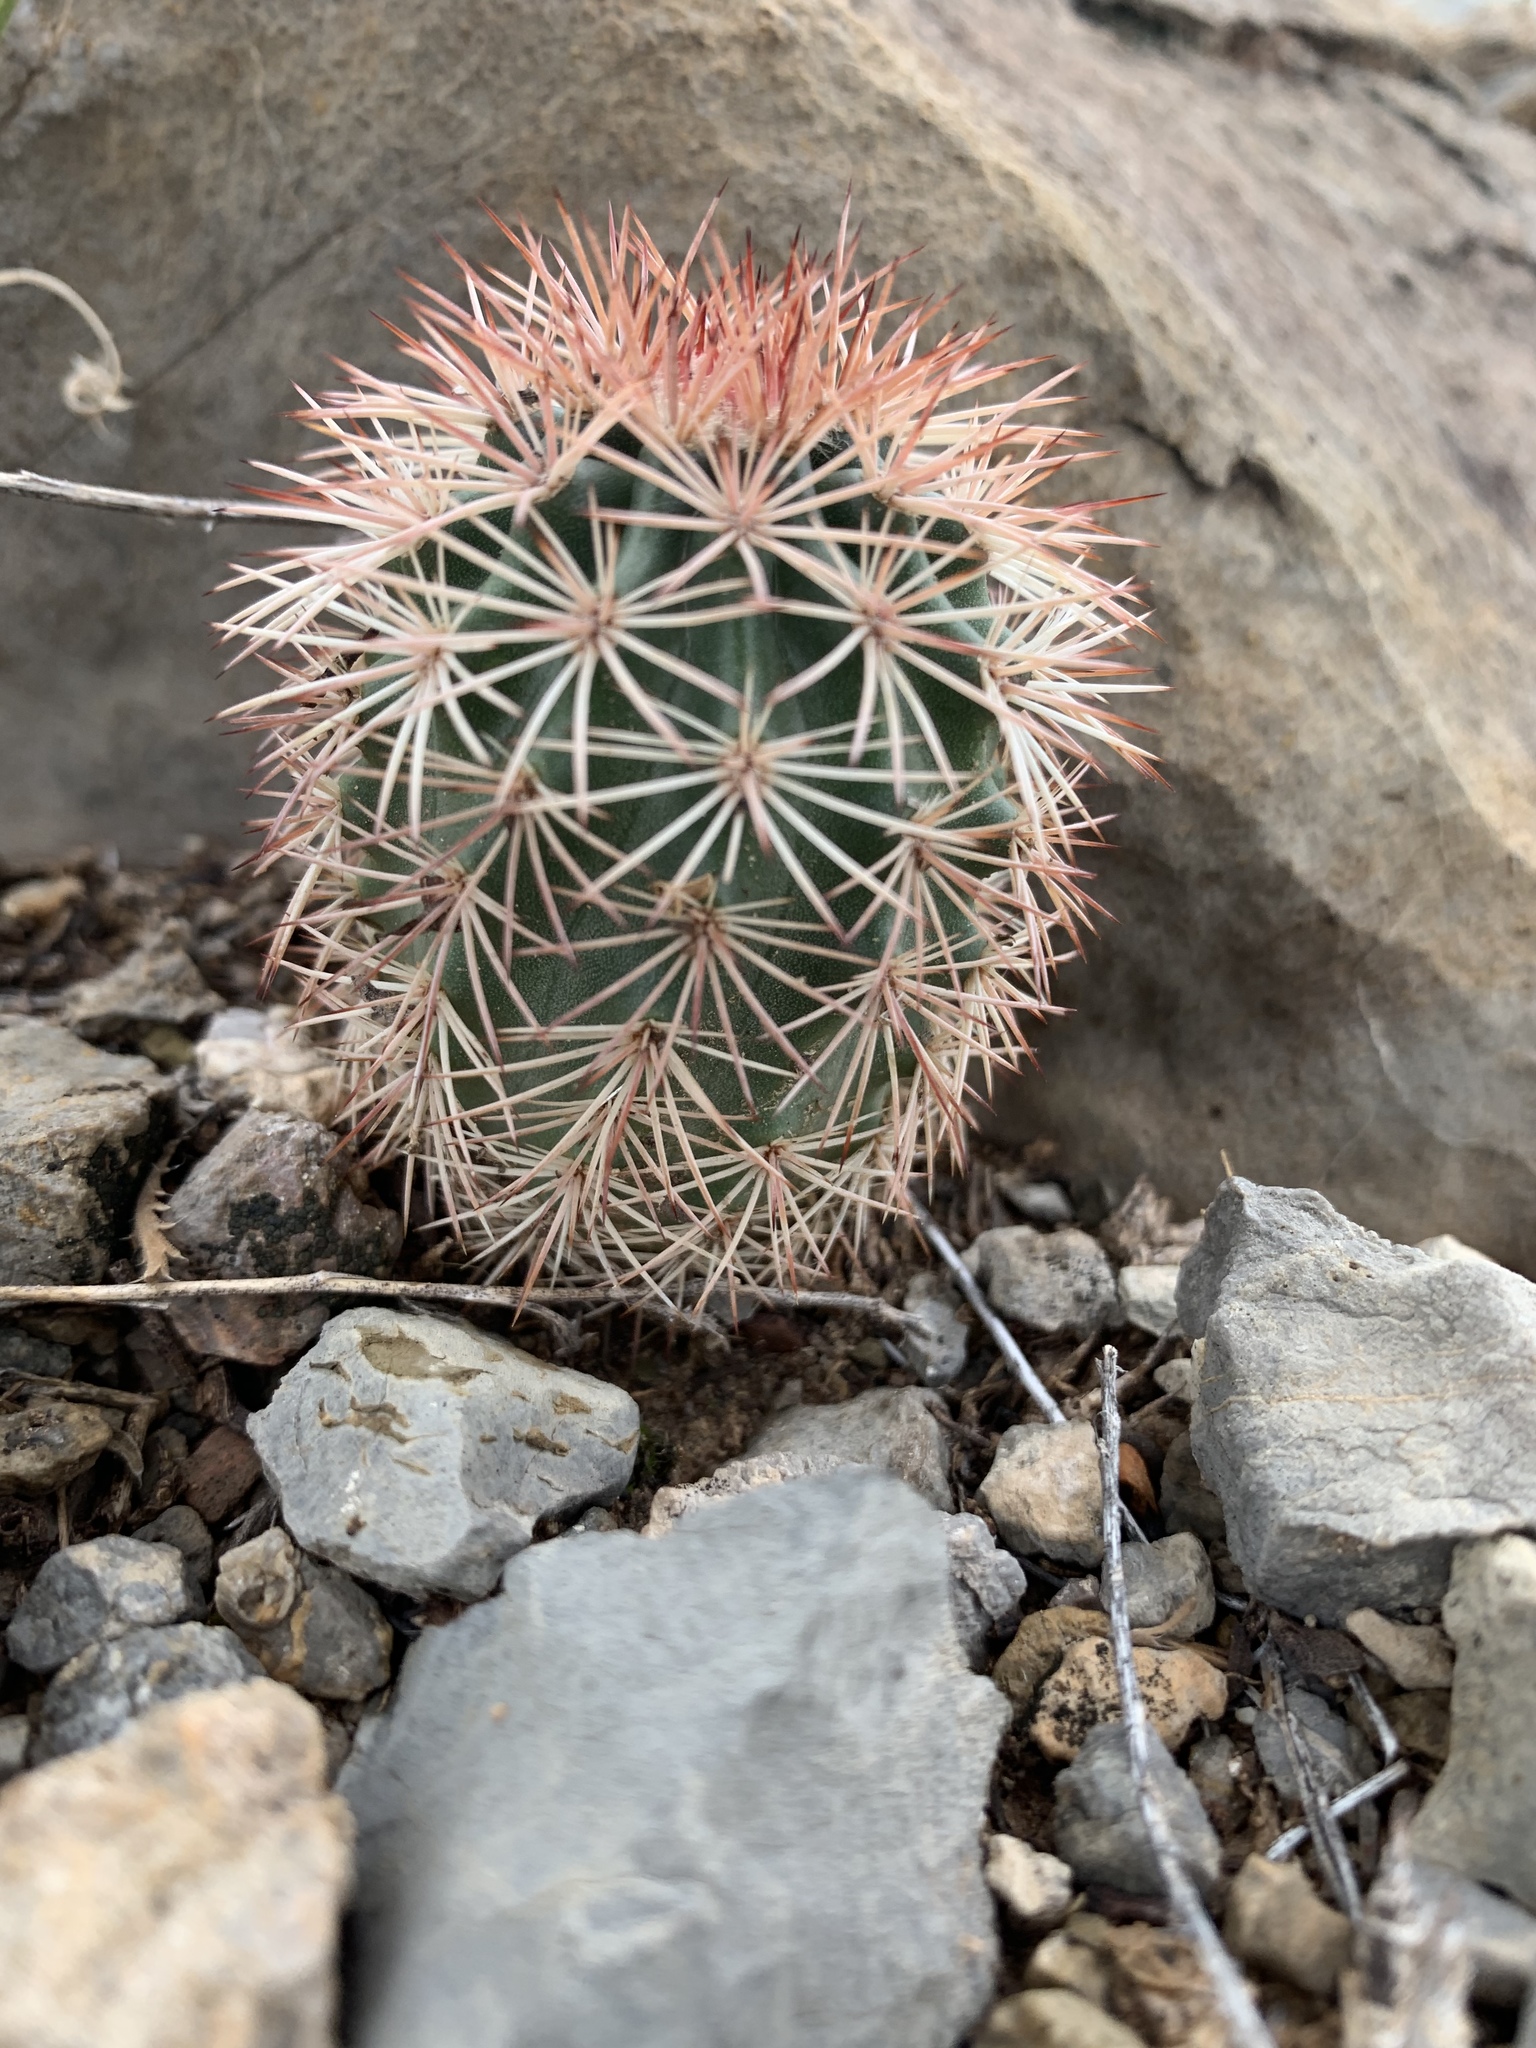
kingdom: Plantae
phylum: Tracheophyta
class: Magnoliopsida
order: Caryophyllales
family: Cactaceae
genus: Echinocereus
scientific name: Echinocereus dasyacanthus
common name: Spiny hedgehog cactus
